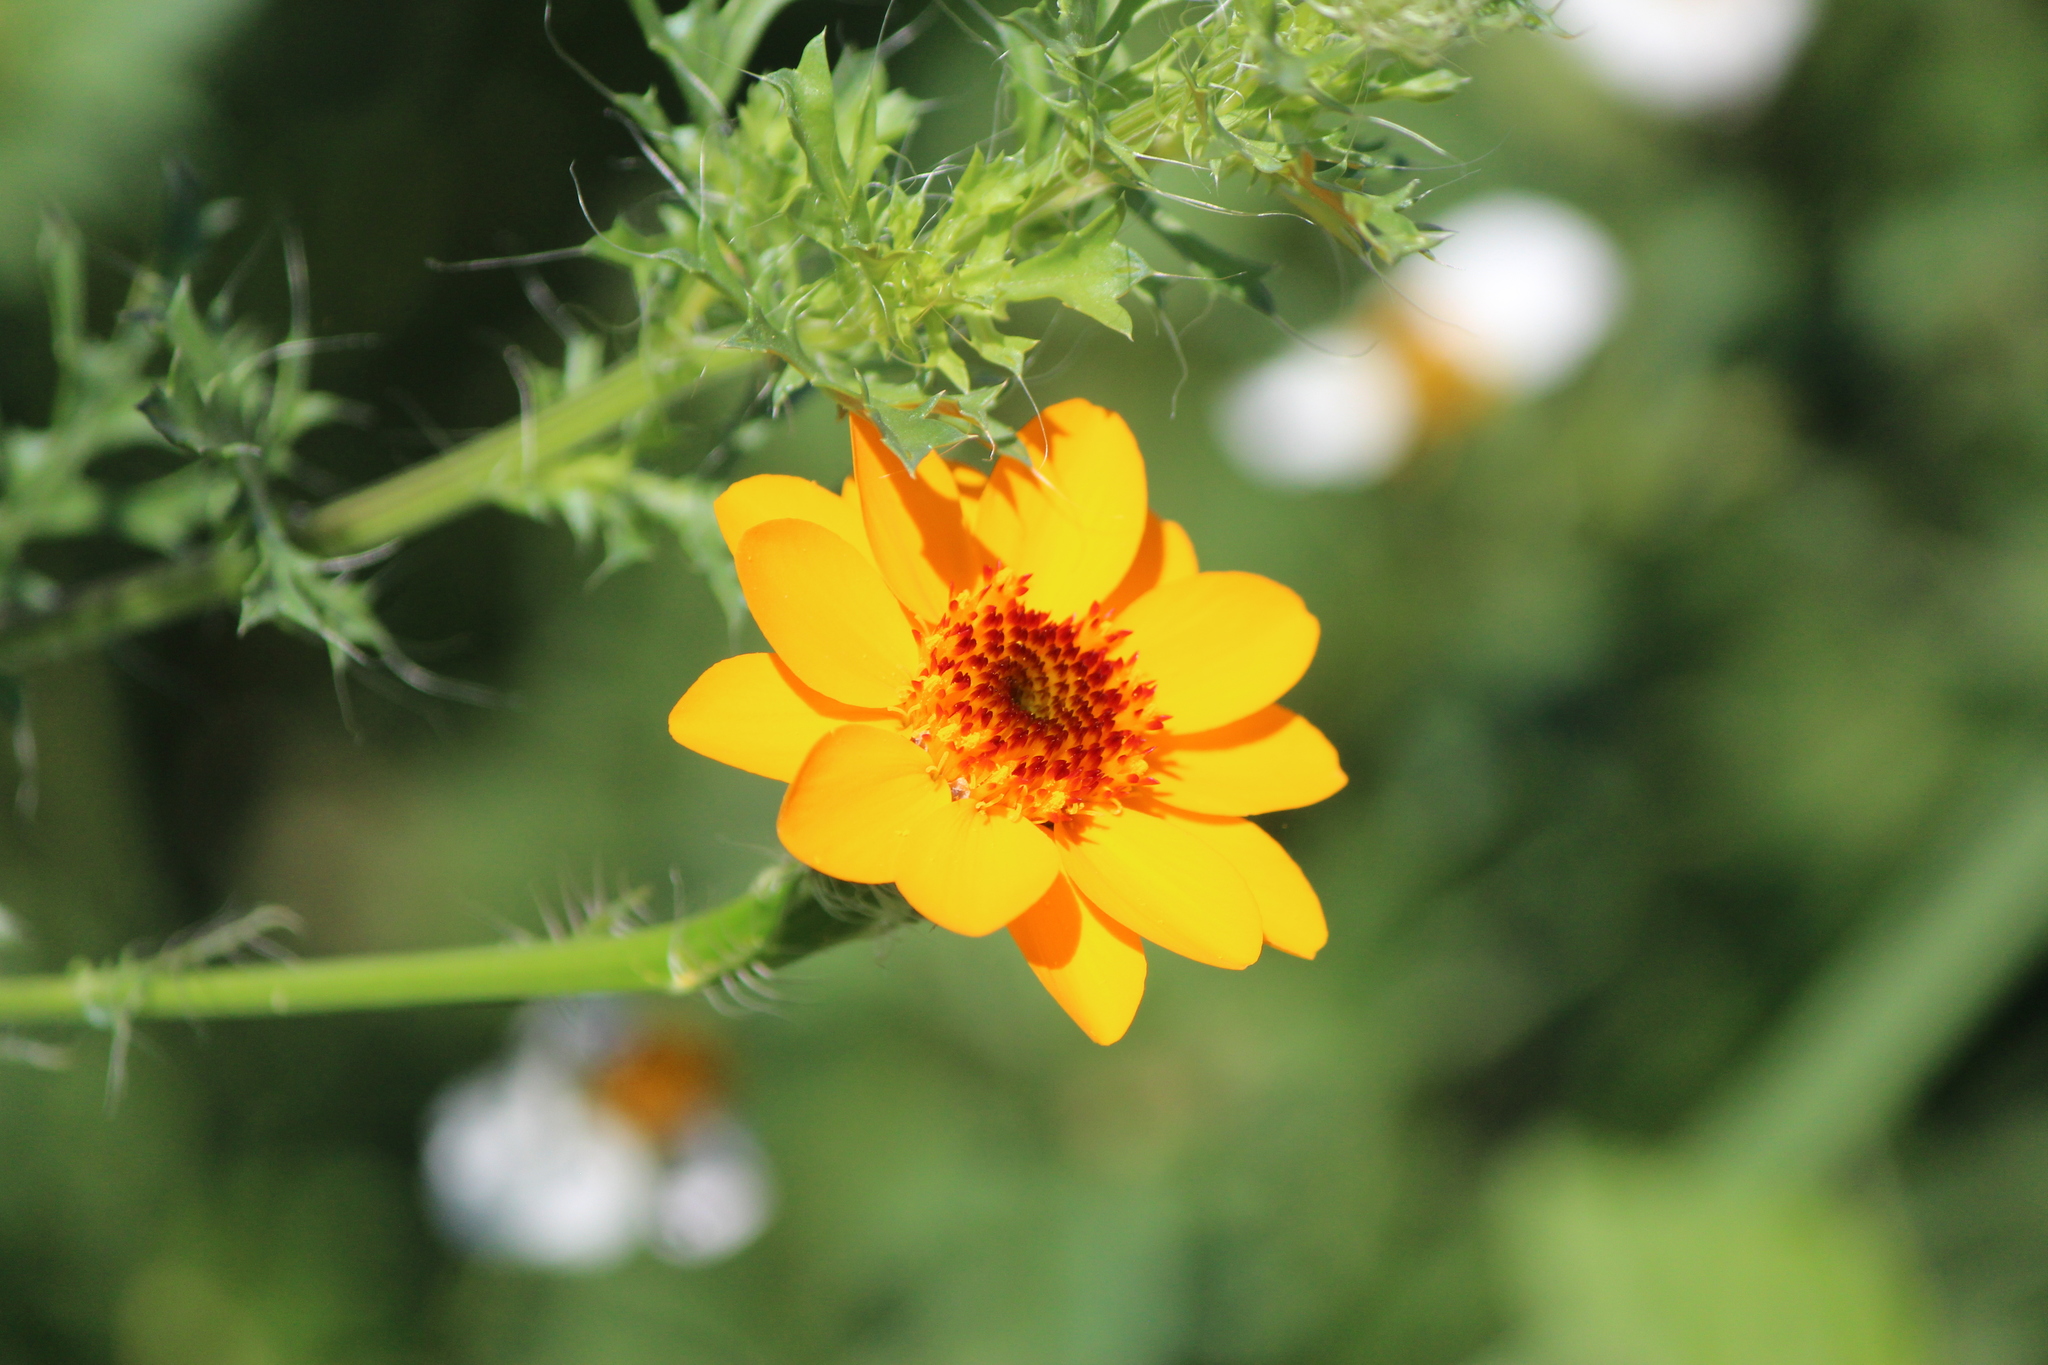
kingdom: Plantae
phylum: Tracheophyta
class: Magnoliopsida
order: Asterales
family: Asteraceae
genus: Adenophyllum
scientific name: Adenophyllum cancellatum
